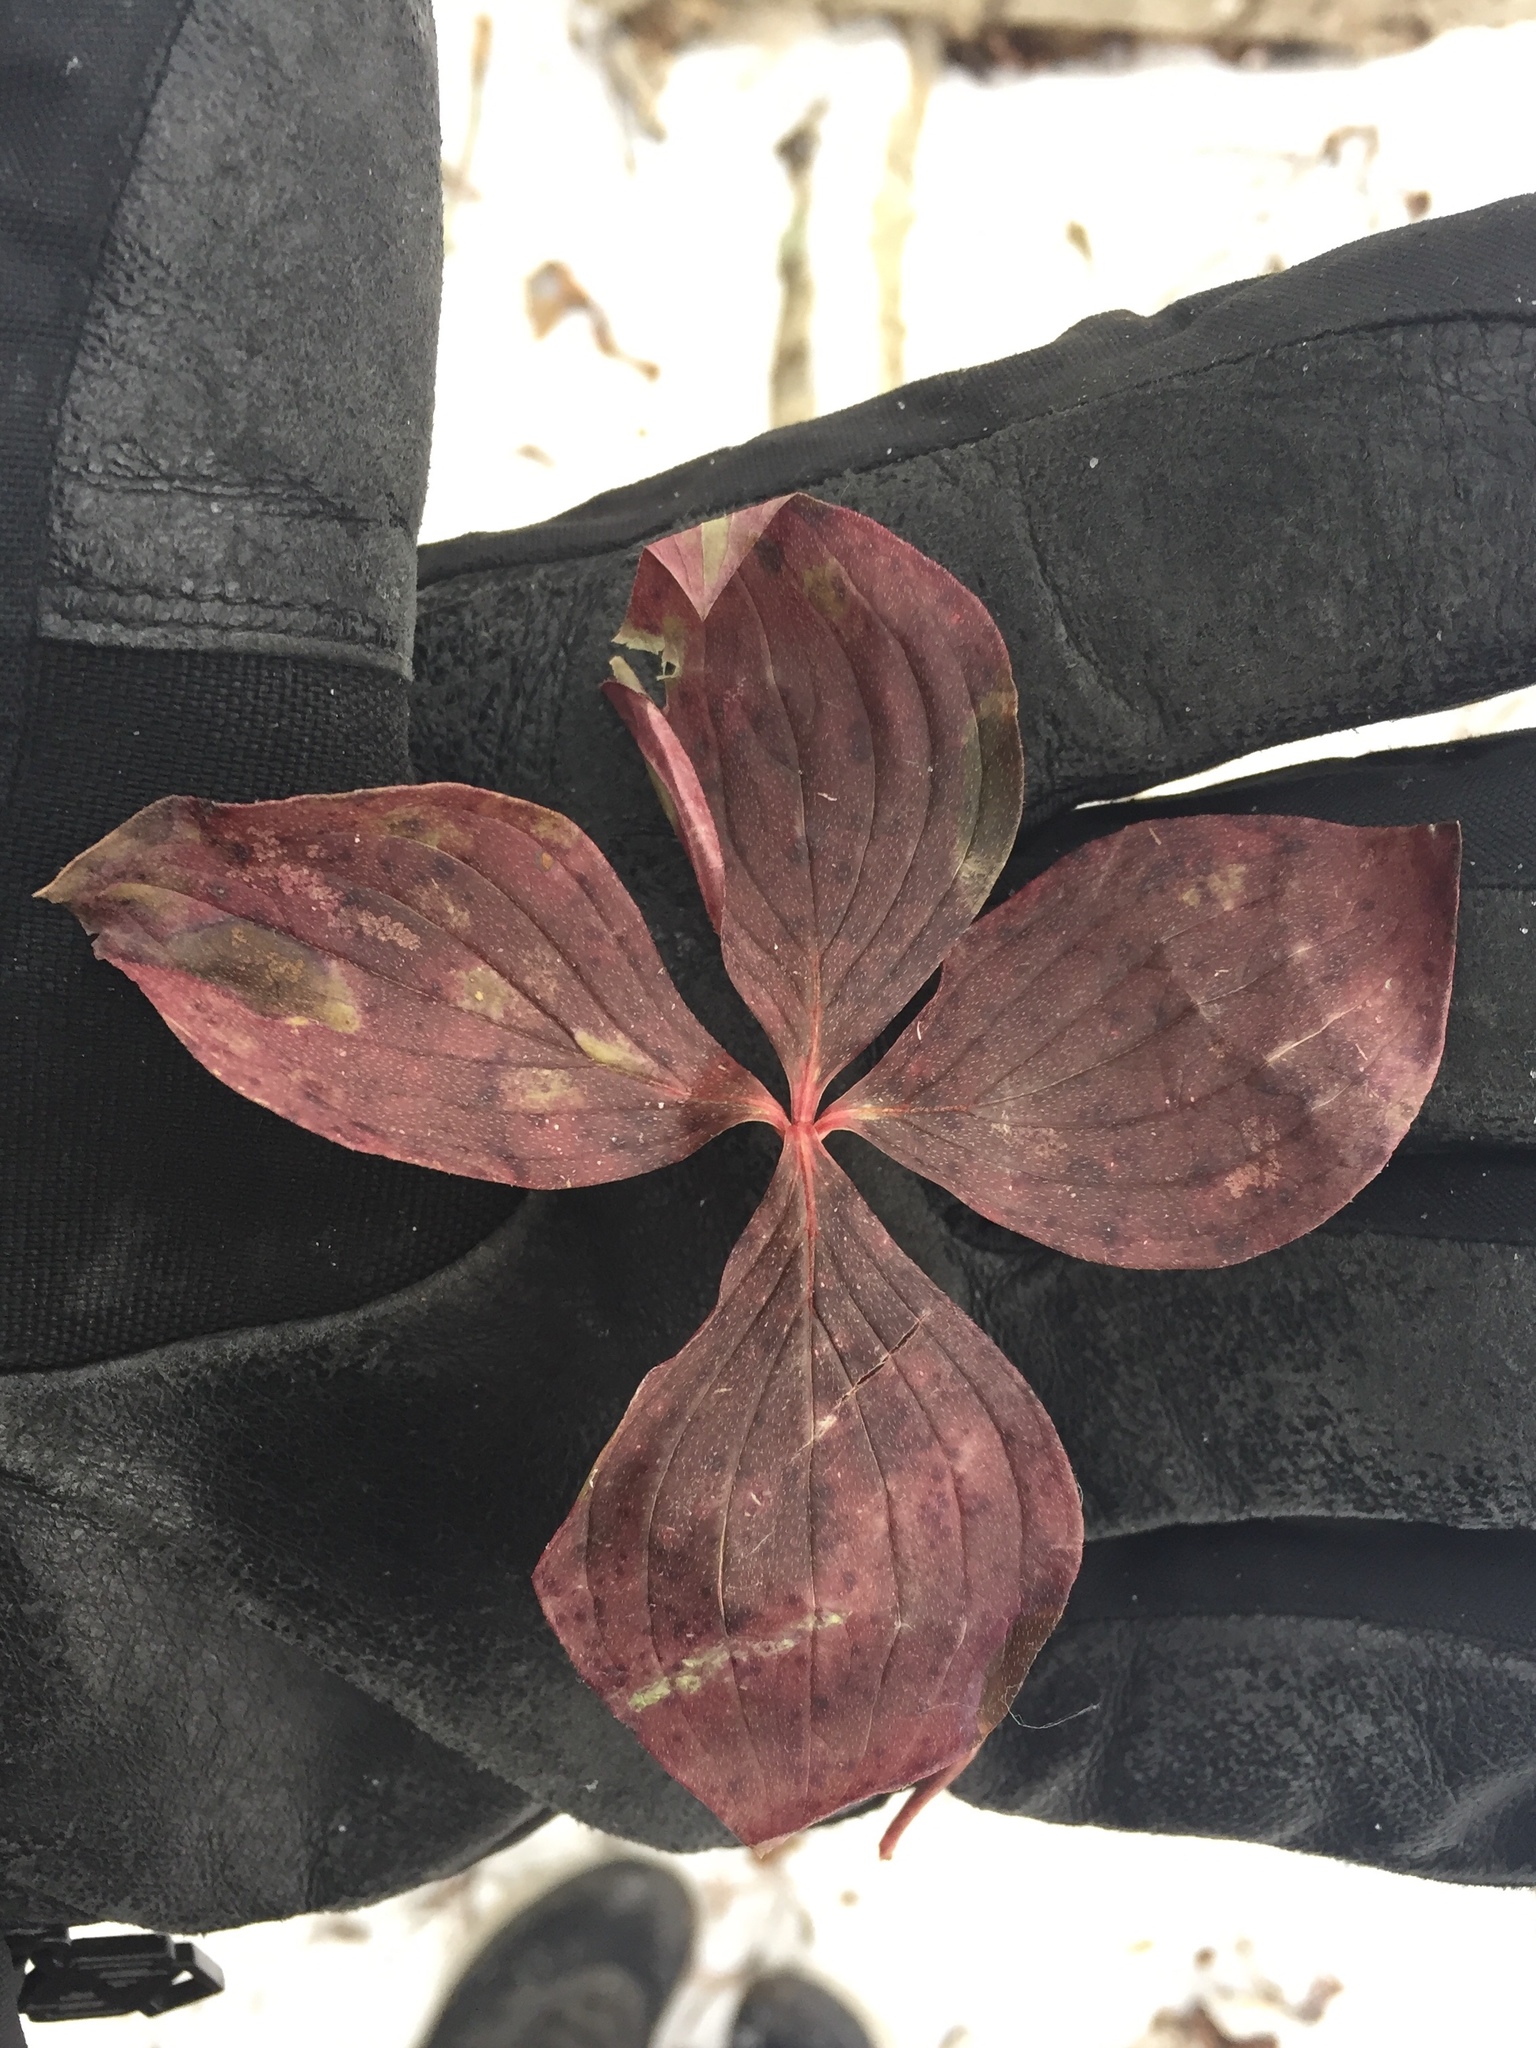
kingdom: Plantae
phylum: Tracheophyta
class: Magnoliopsida
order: Cornales
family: Cornaceae
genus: Cornus
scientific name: Cornus canadensis
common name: Creeping dogwood
